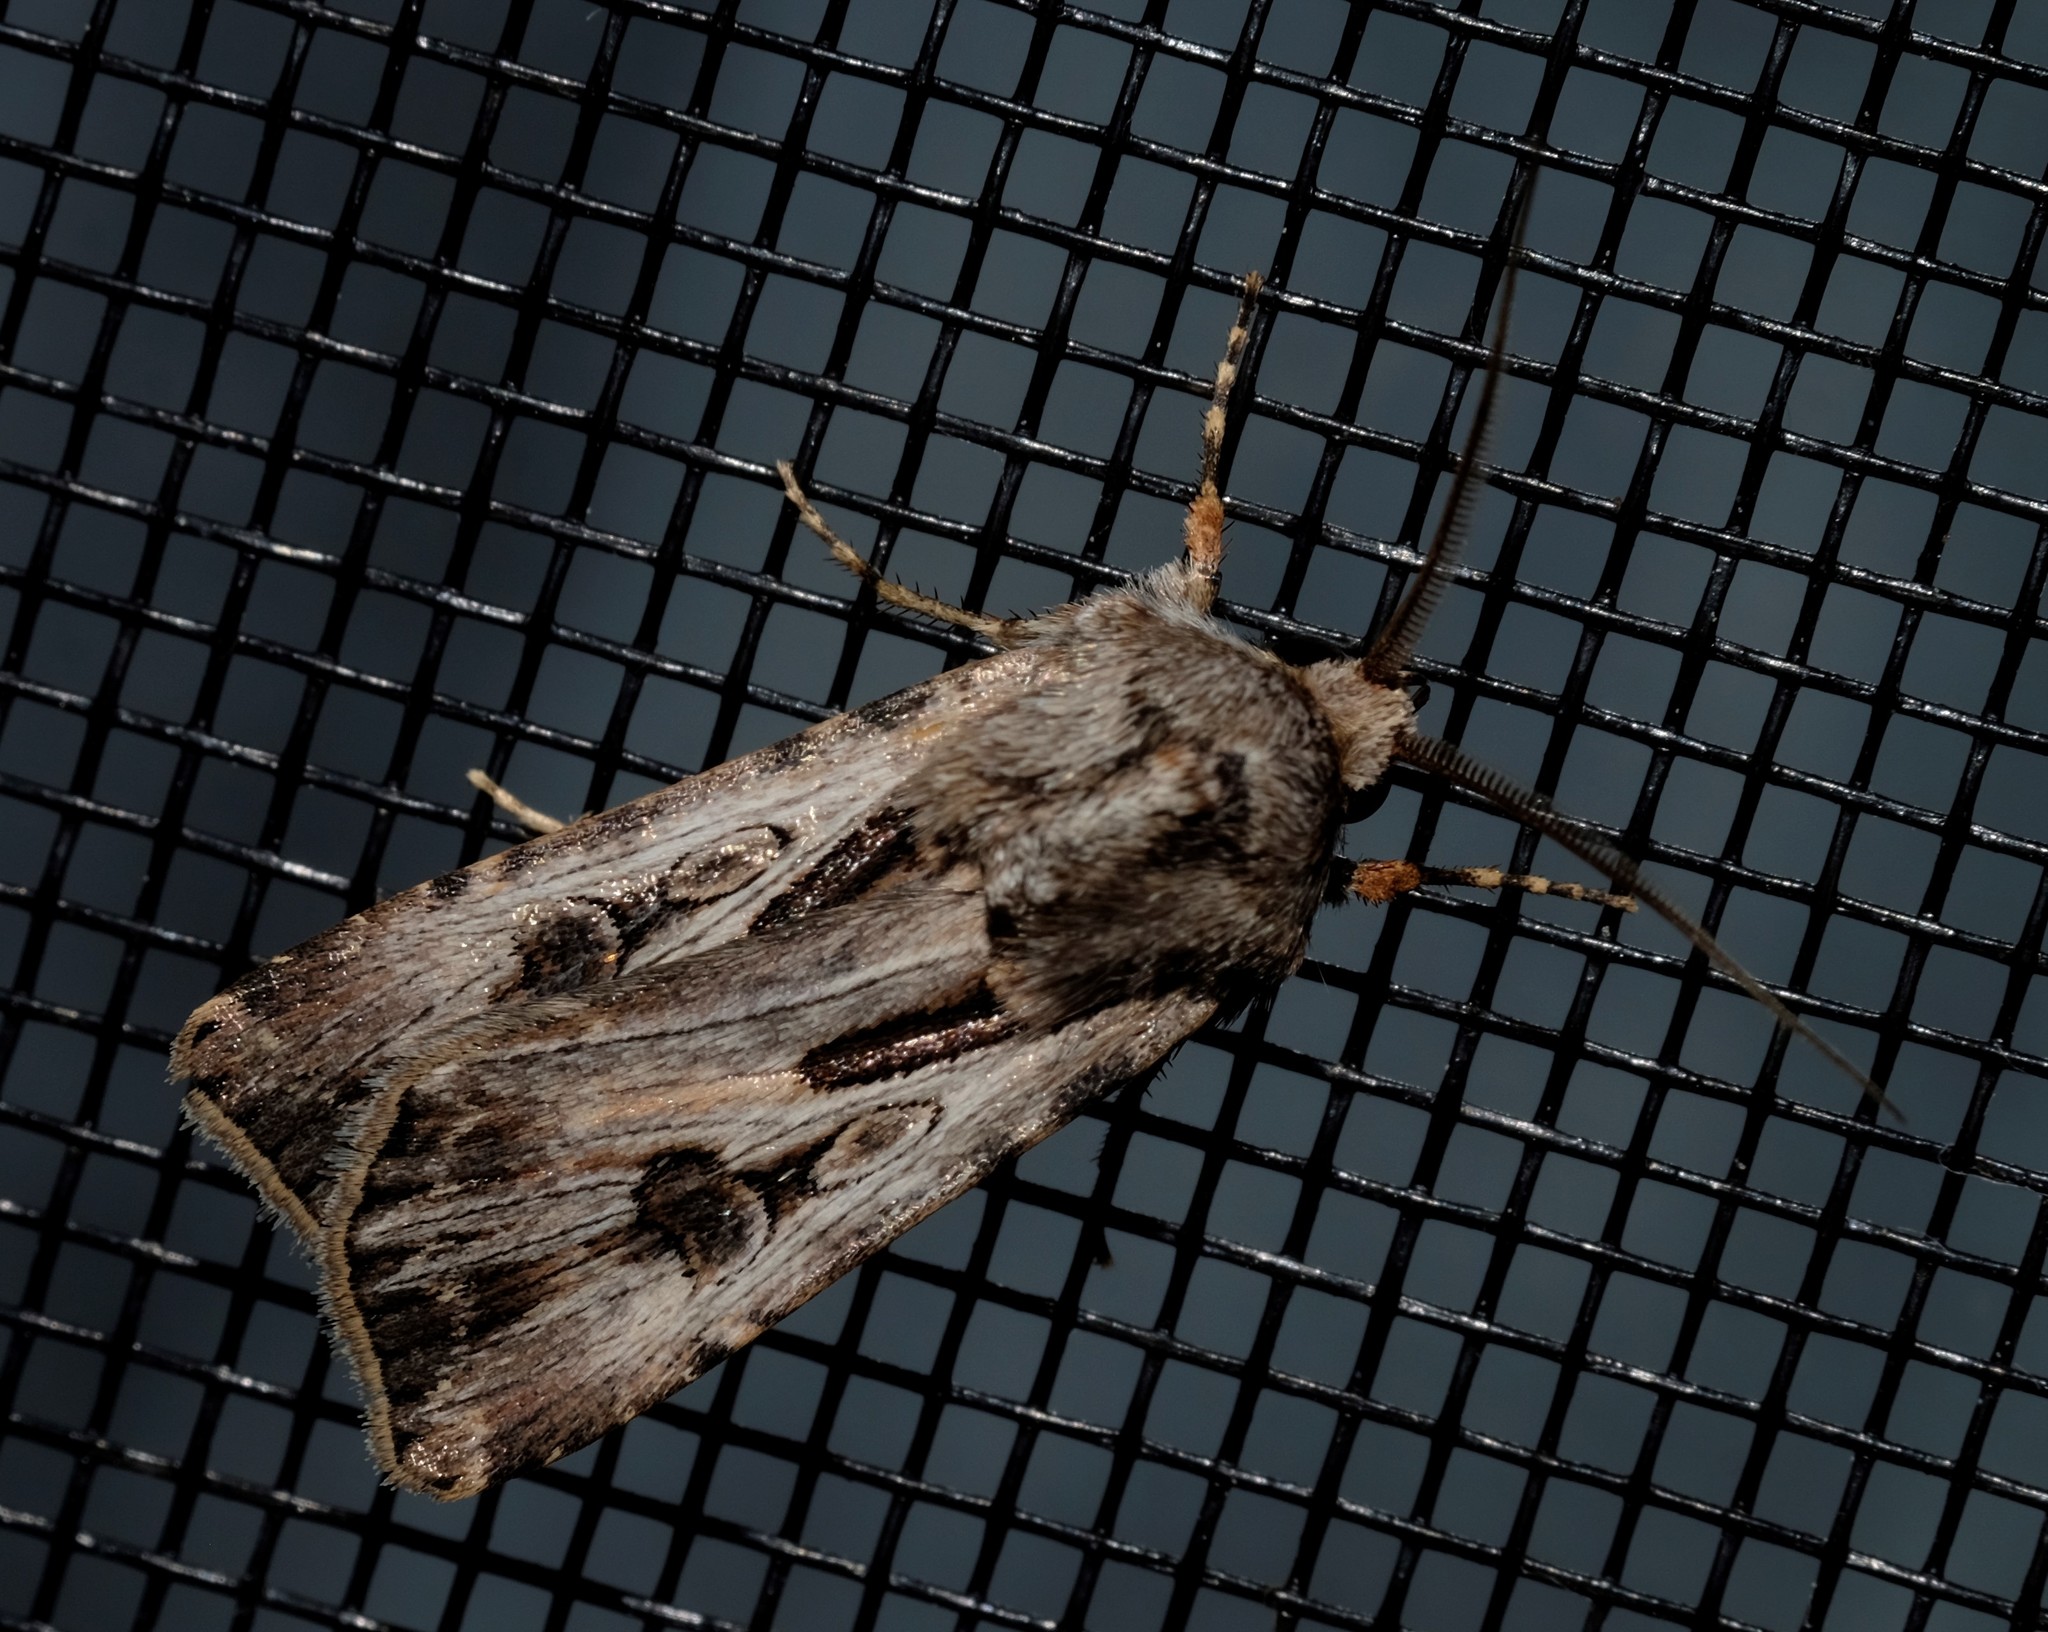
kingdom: Animalia
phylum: Arthropoda
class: Insecta
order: Lepidoptera
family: Noctuidae
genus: Agrotis
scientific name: Agrotis munda
